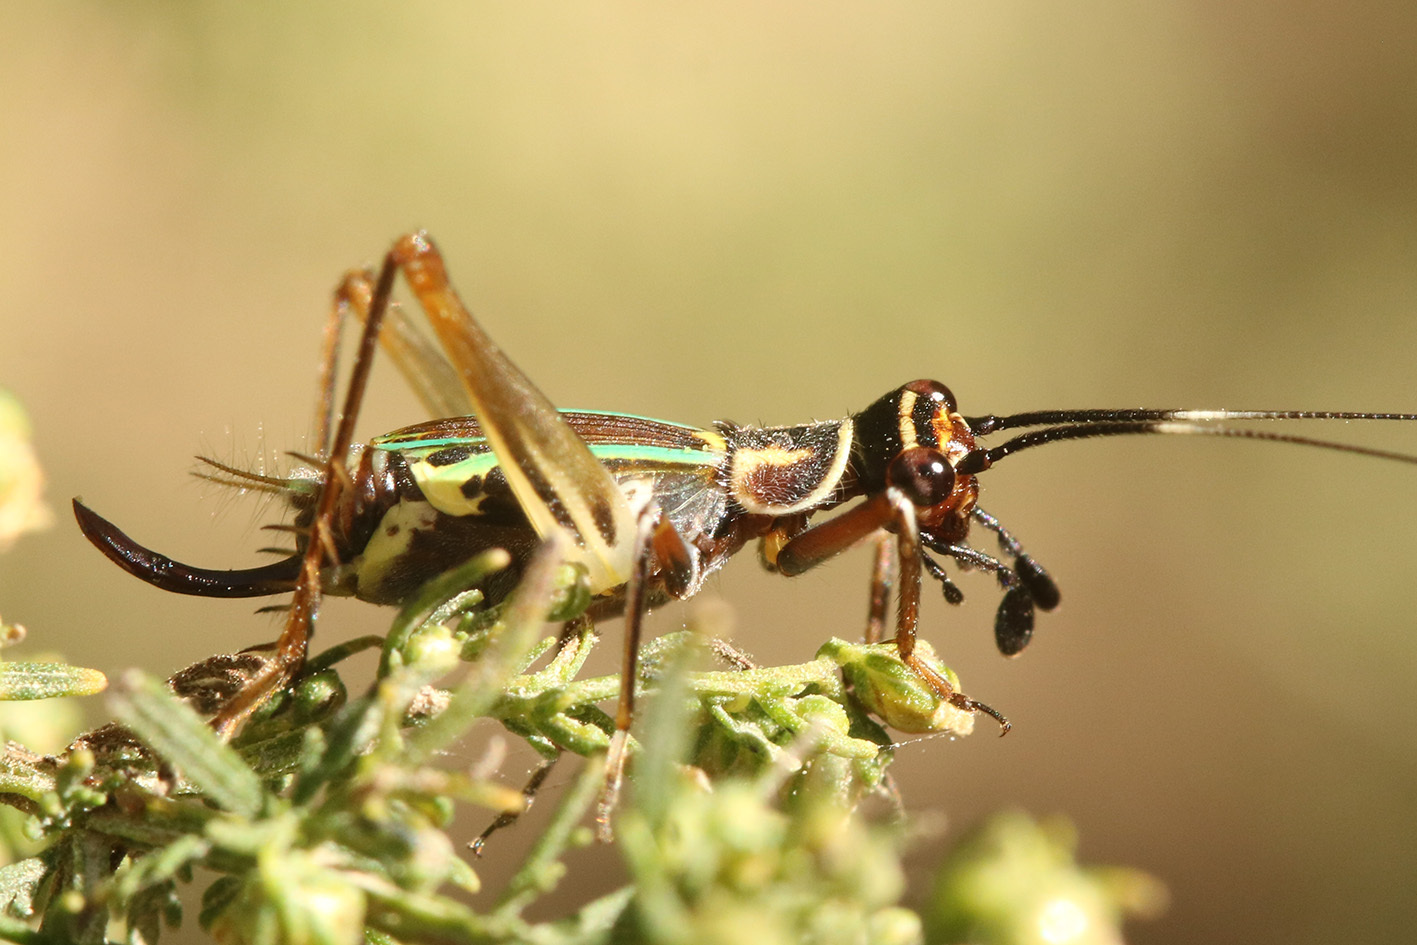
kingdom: Animalia
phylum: Arthropoda
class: Insecta
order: Orthoptera
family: Trigonidiidae
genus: Phylloscyrtus
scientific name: Phylloscyrtus amoenus
